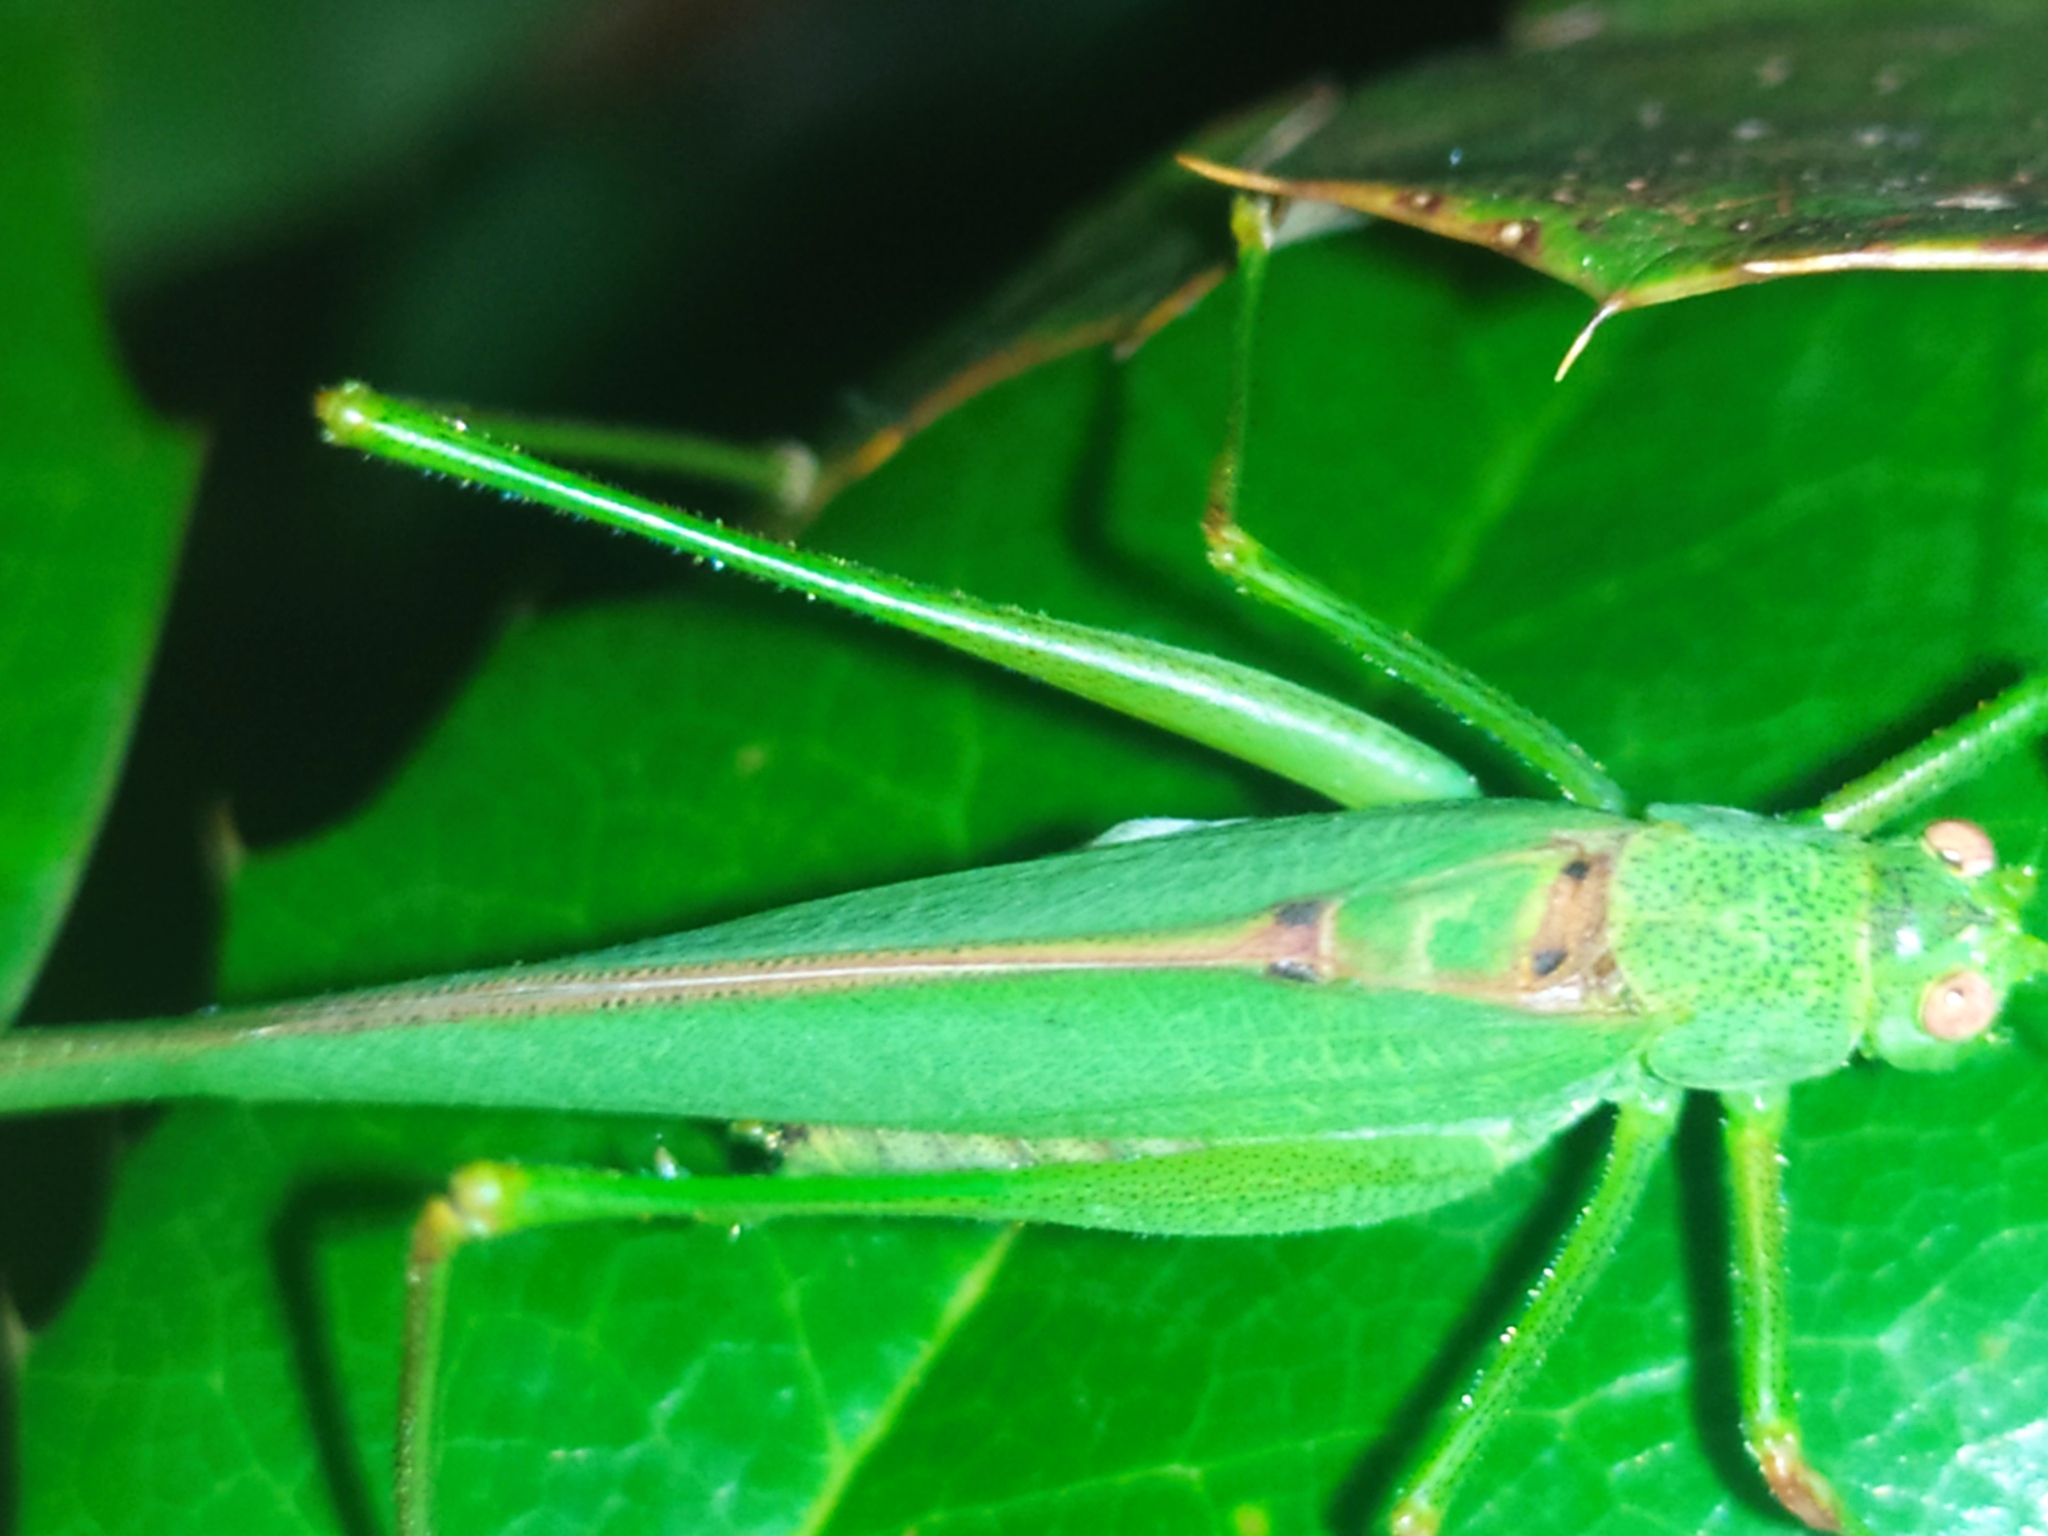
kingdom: Animalia
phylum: Arthropoda
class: Insecta
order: Orthoptera
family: Tettigoniidae
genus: Phaneroptera
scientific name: Phaneroptera nana
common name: Southern sickle bush-cricket
